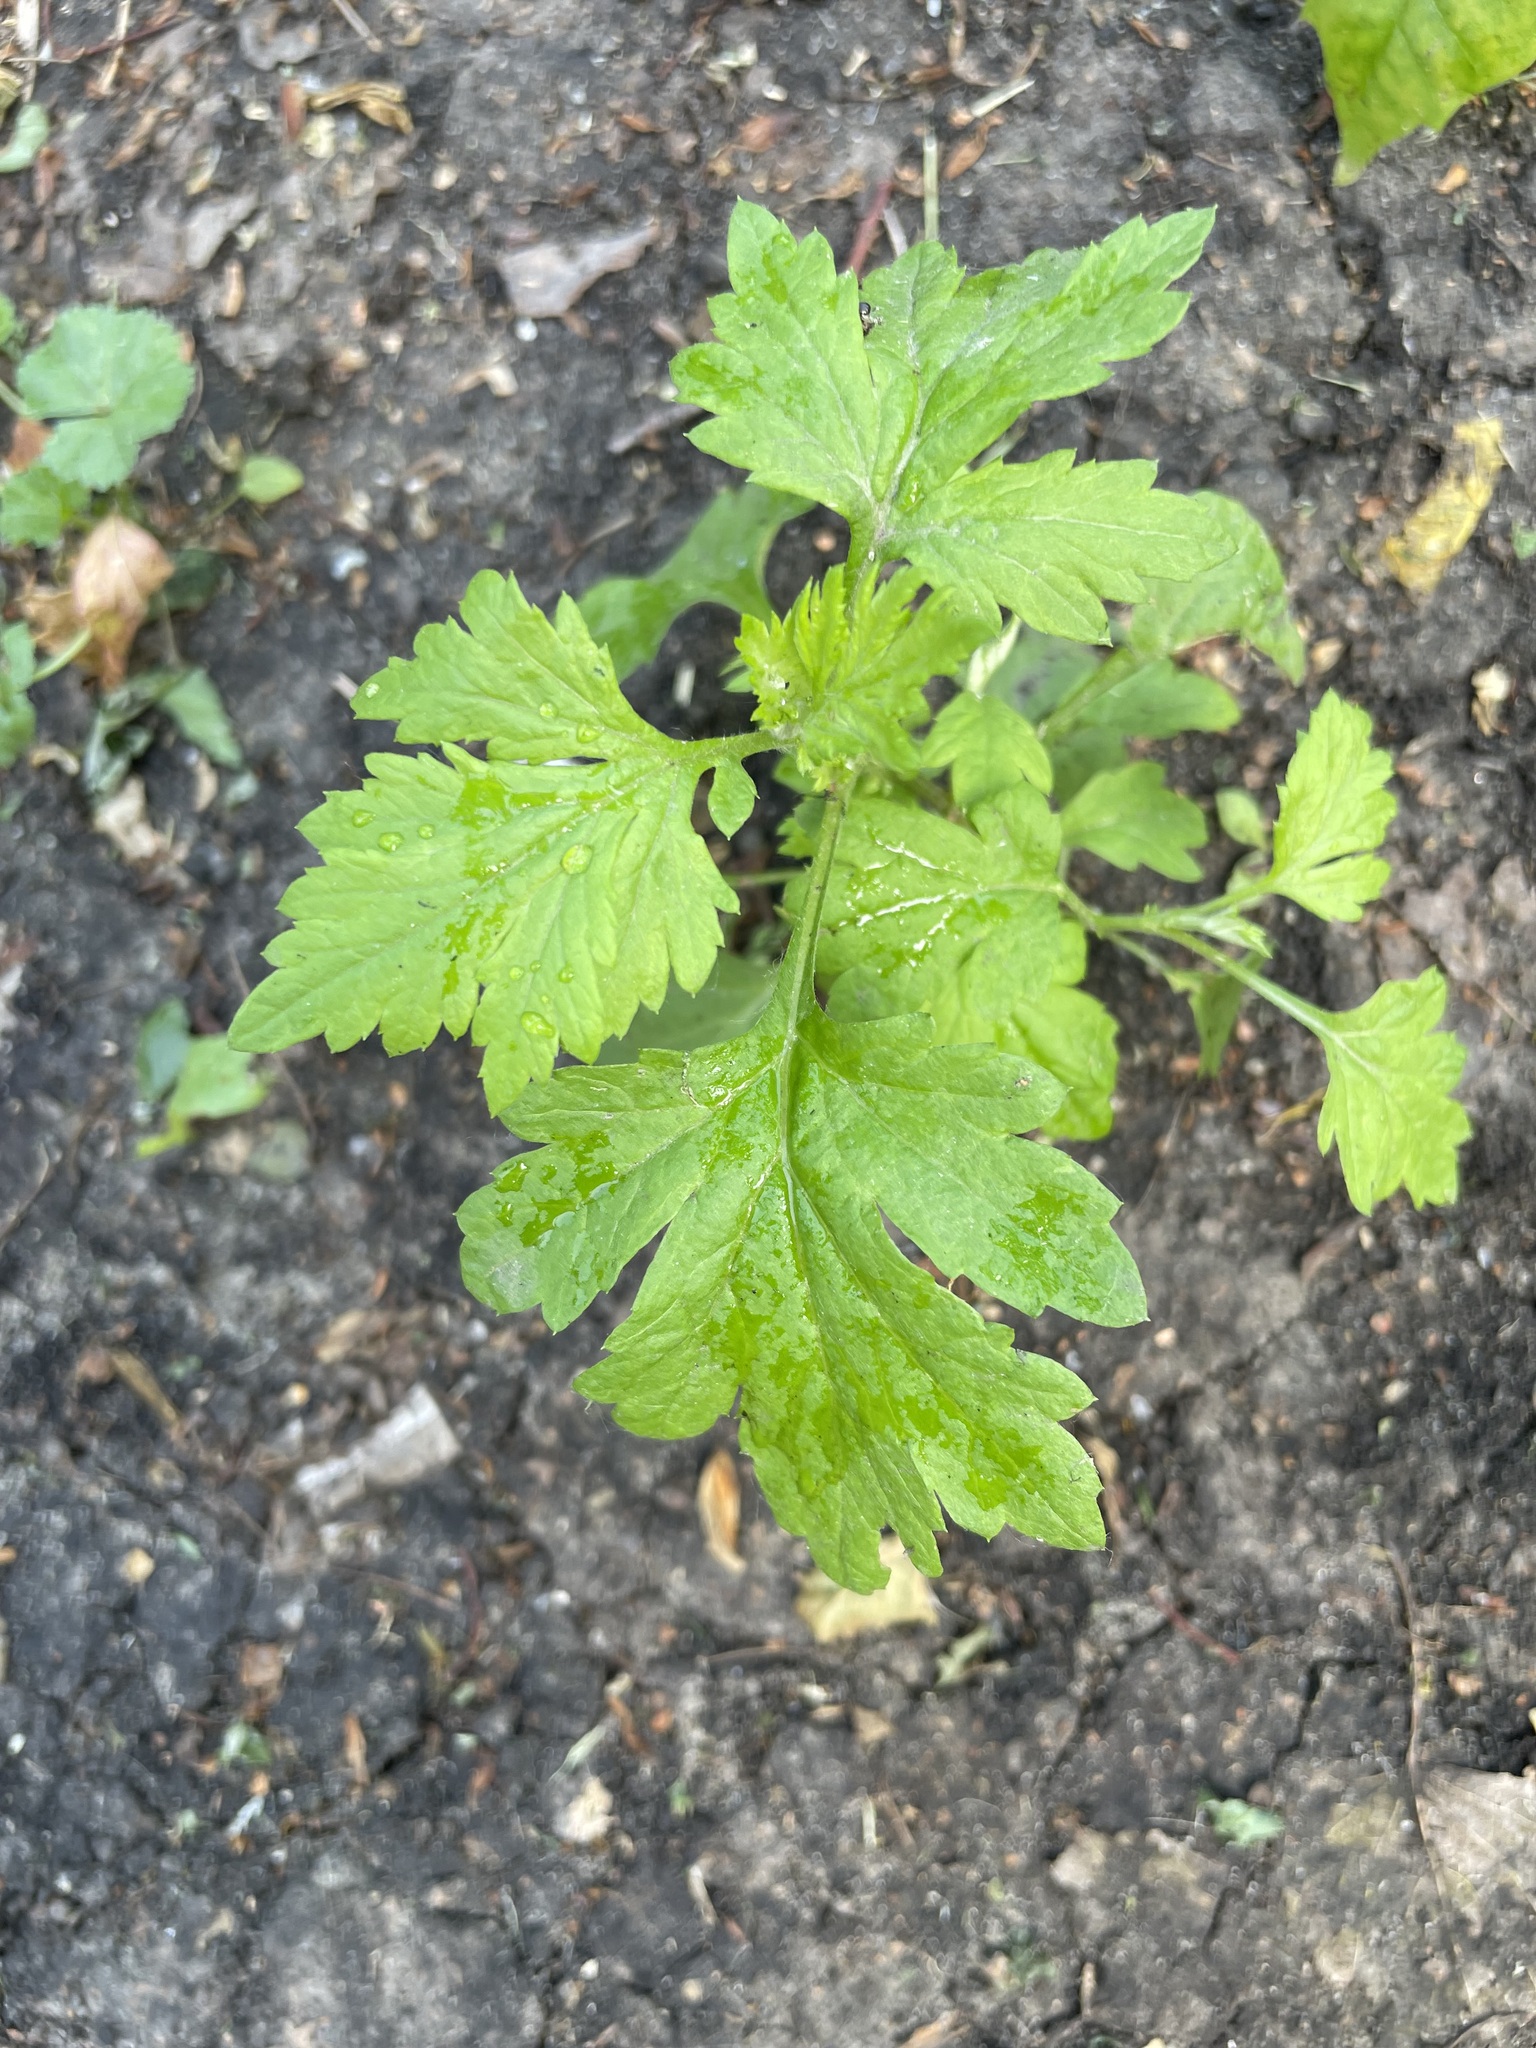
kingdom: Plantae
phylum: Tracheophyta
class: Magnoliopsida
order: Asterales
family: Asteraceae
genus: Artemisia
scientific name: Artemisia vulgaris
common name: Mugwort
